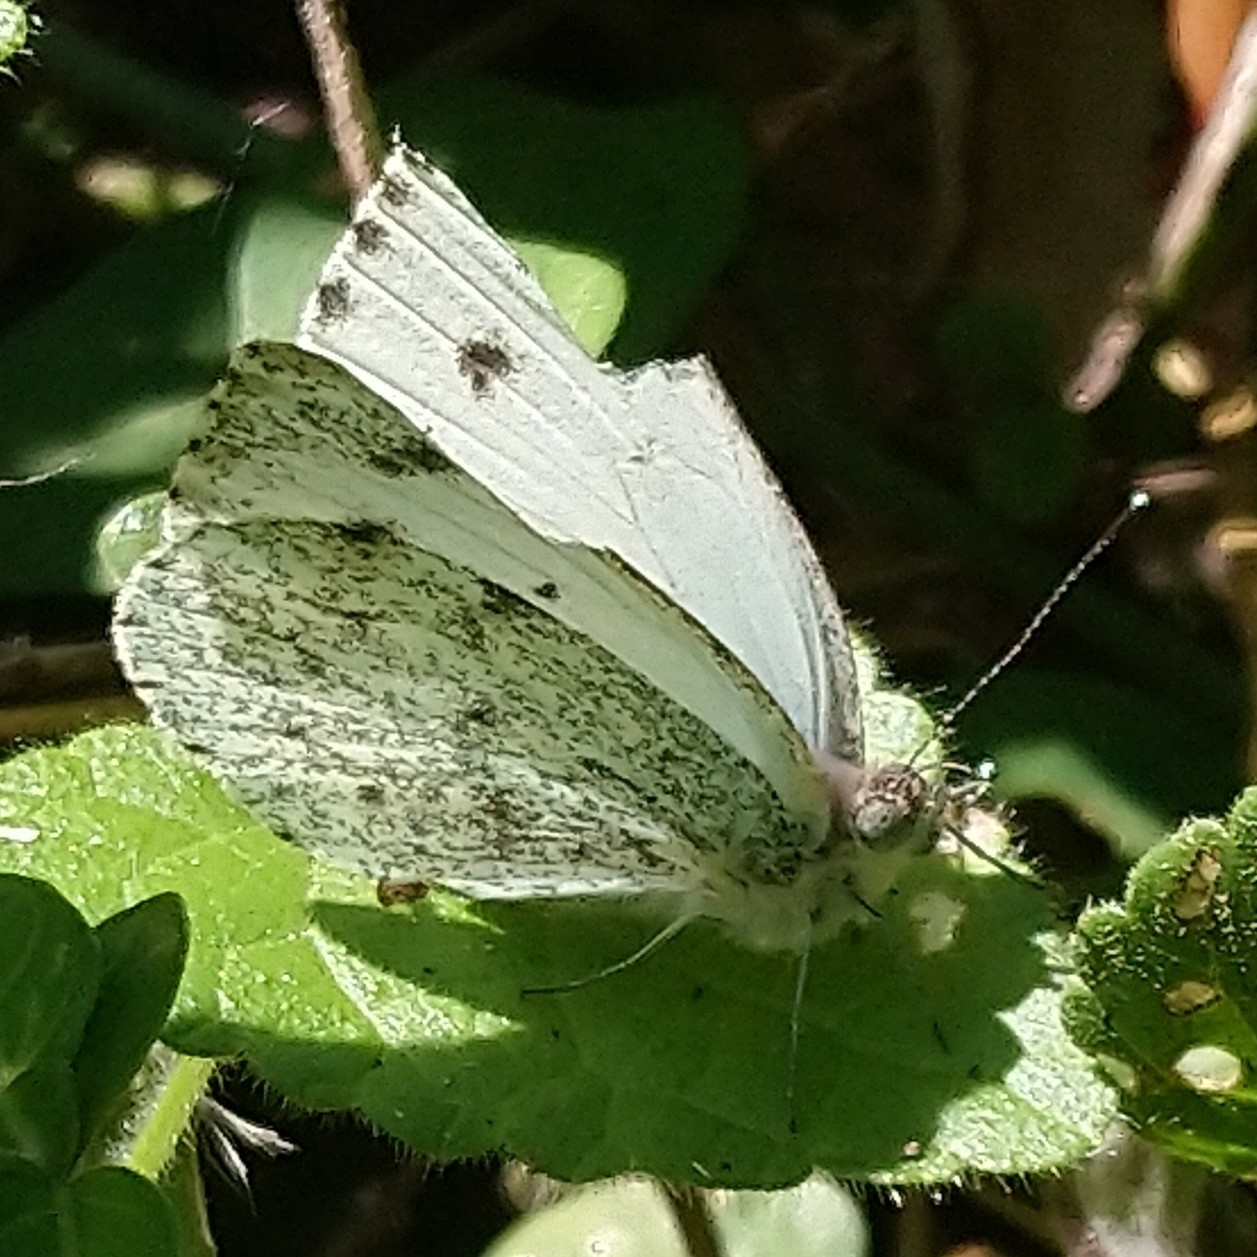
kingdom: Animalia
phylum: Arthropoda
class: Insecta
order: Lepidoptera
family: Pieridae
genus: Dixeia
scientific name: Dixeia charina
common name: African small white
